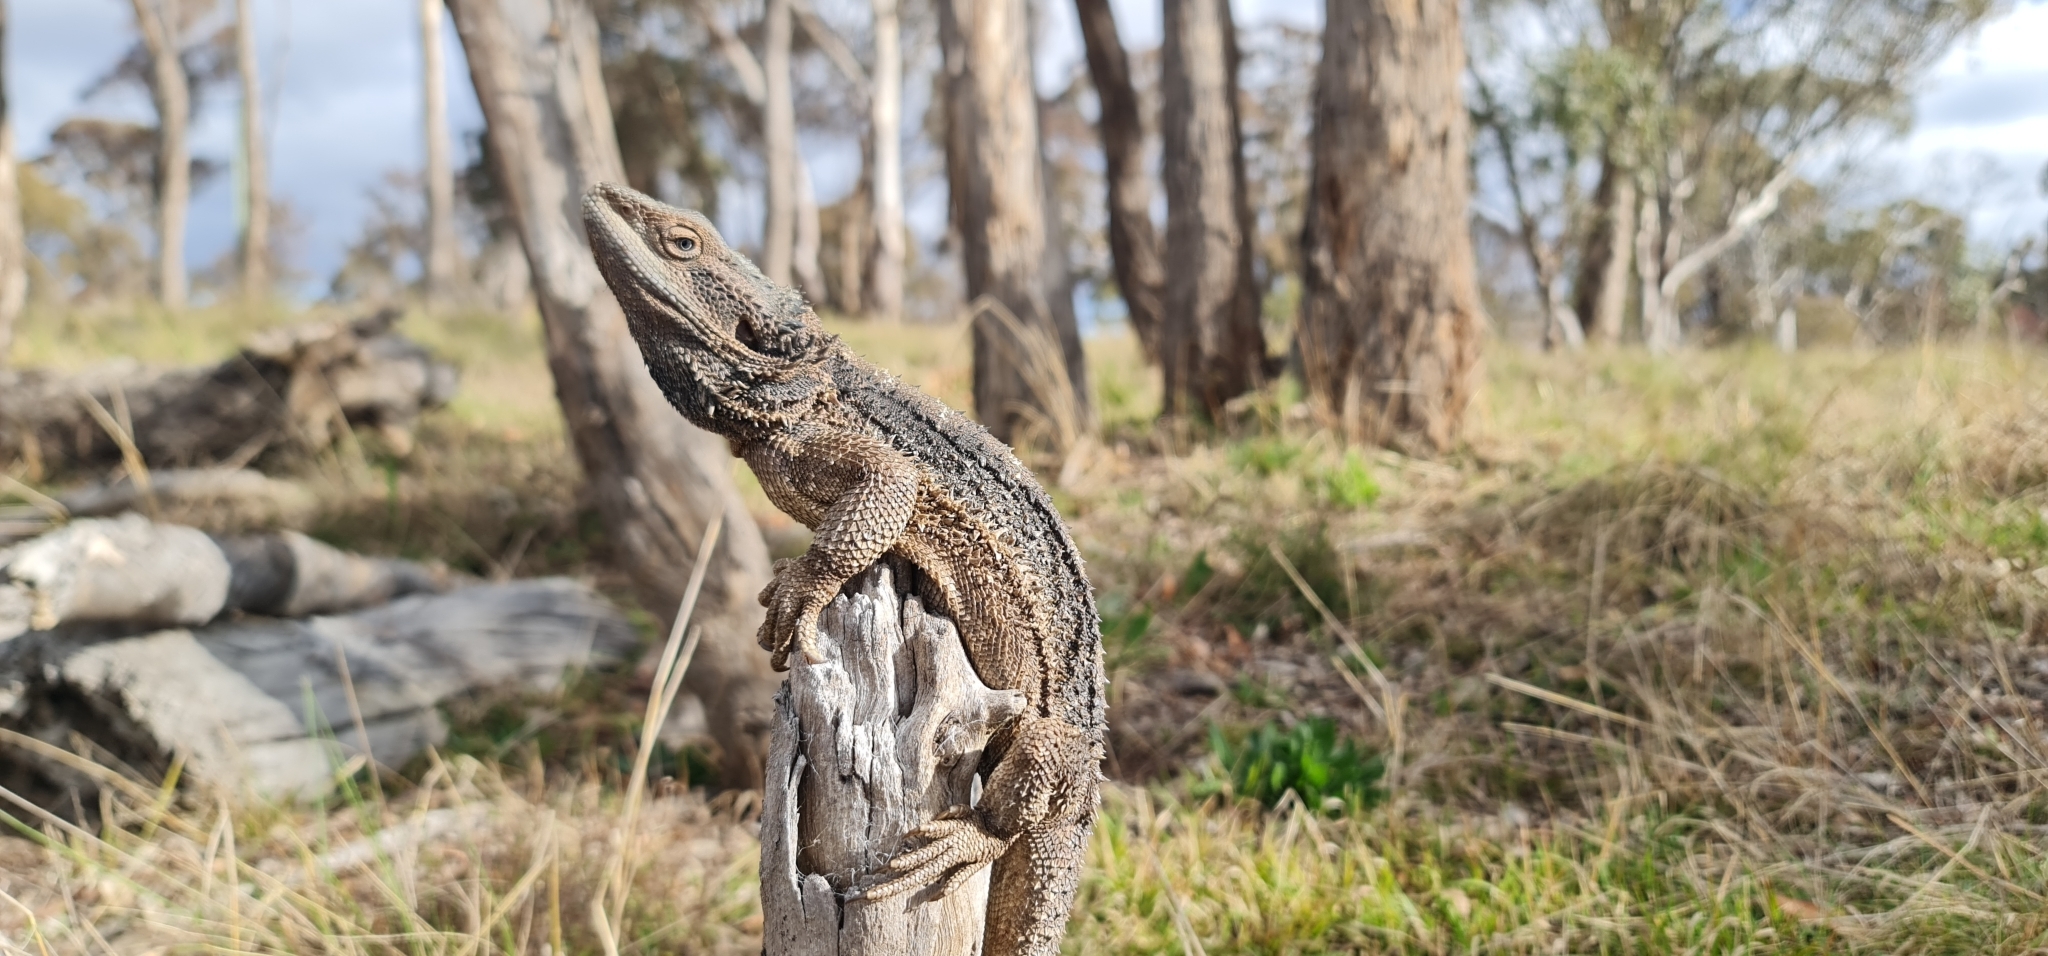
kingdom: Animalia
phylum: Chordata
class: Squamata
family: Agamidae
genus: Pogona
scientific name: Pogona barbata
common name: Bearded dragon
